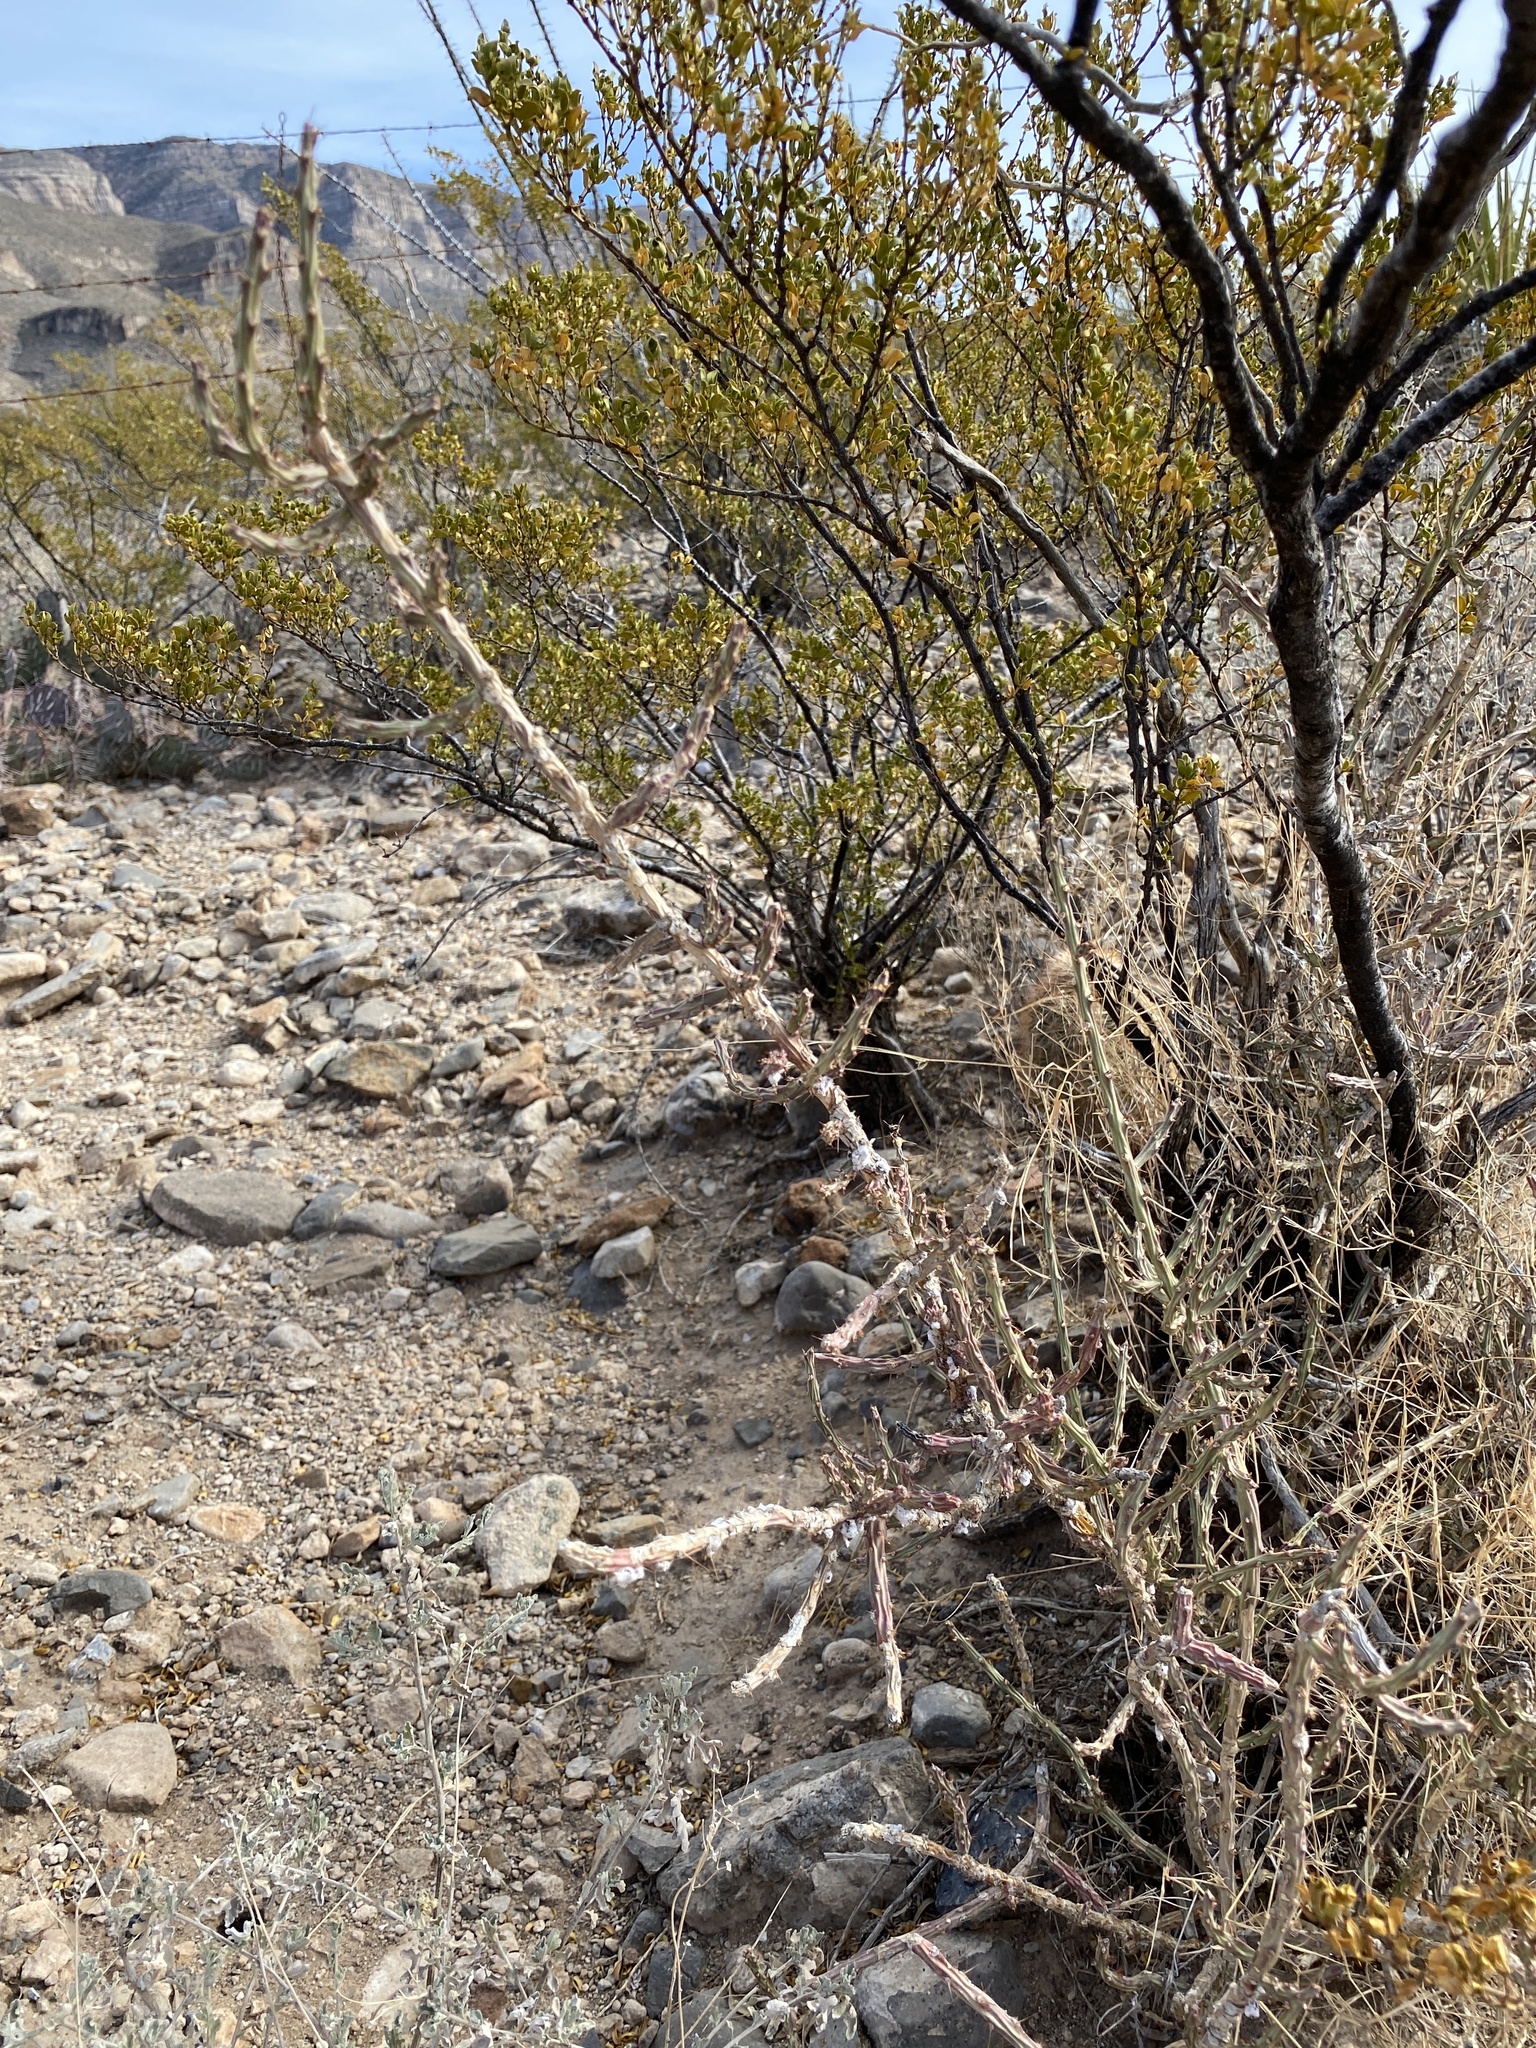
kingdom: Plantae
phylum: Tracheophyta
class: Magnoliopsida
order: Caryophyllales
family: Cactaceae
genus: Cylindropuntia
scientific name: Cylindropuntia leptocaulis
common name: Christmas cactus
